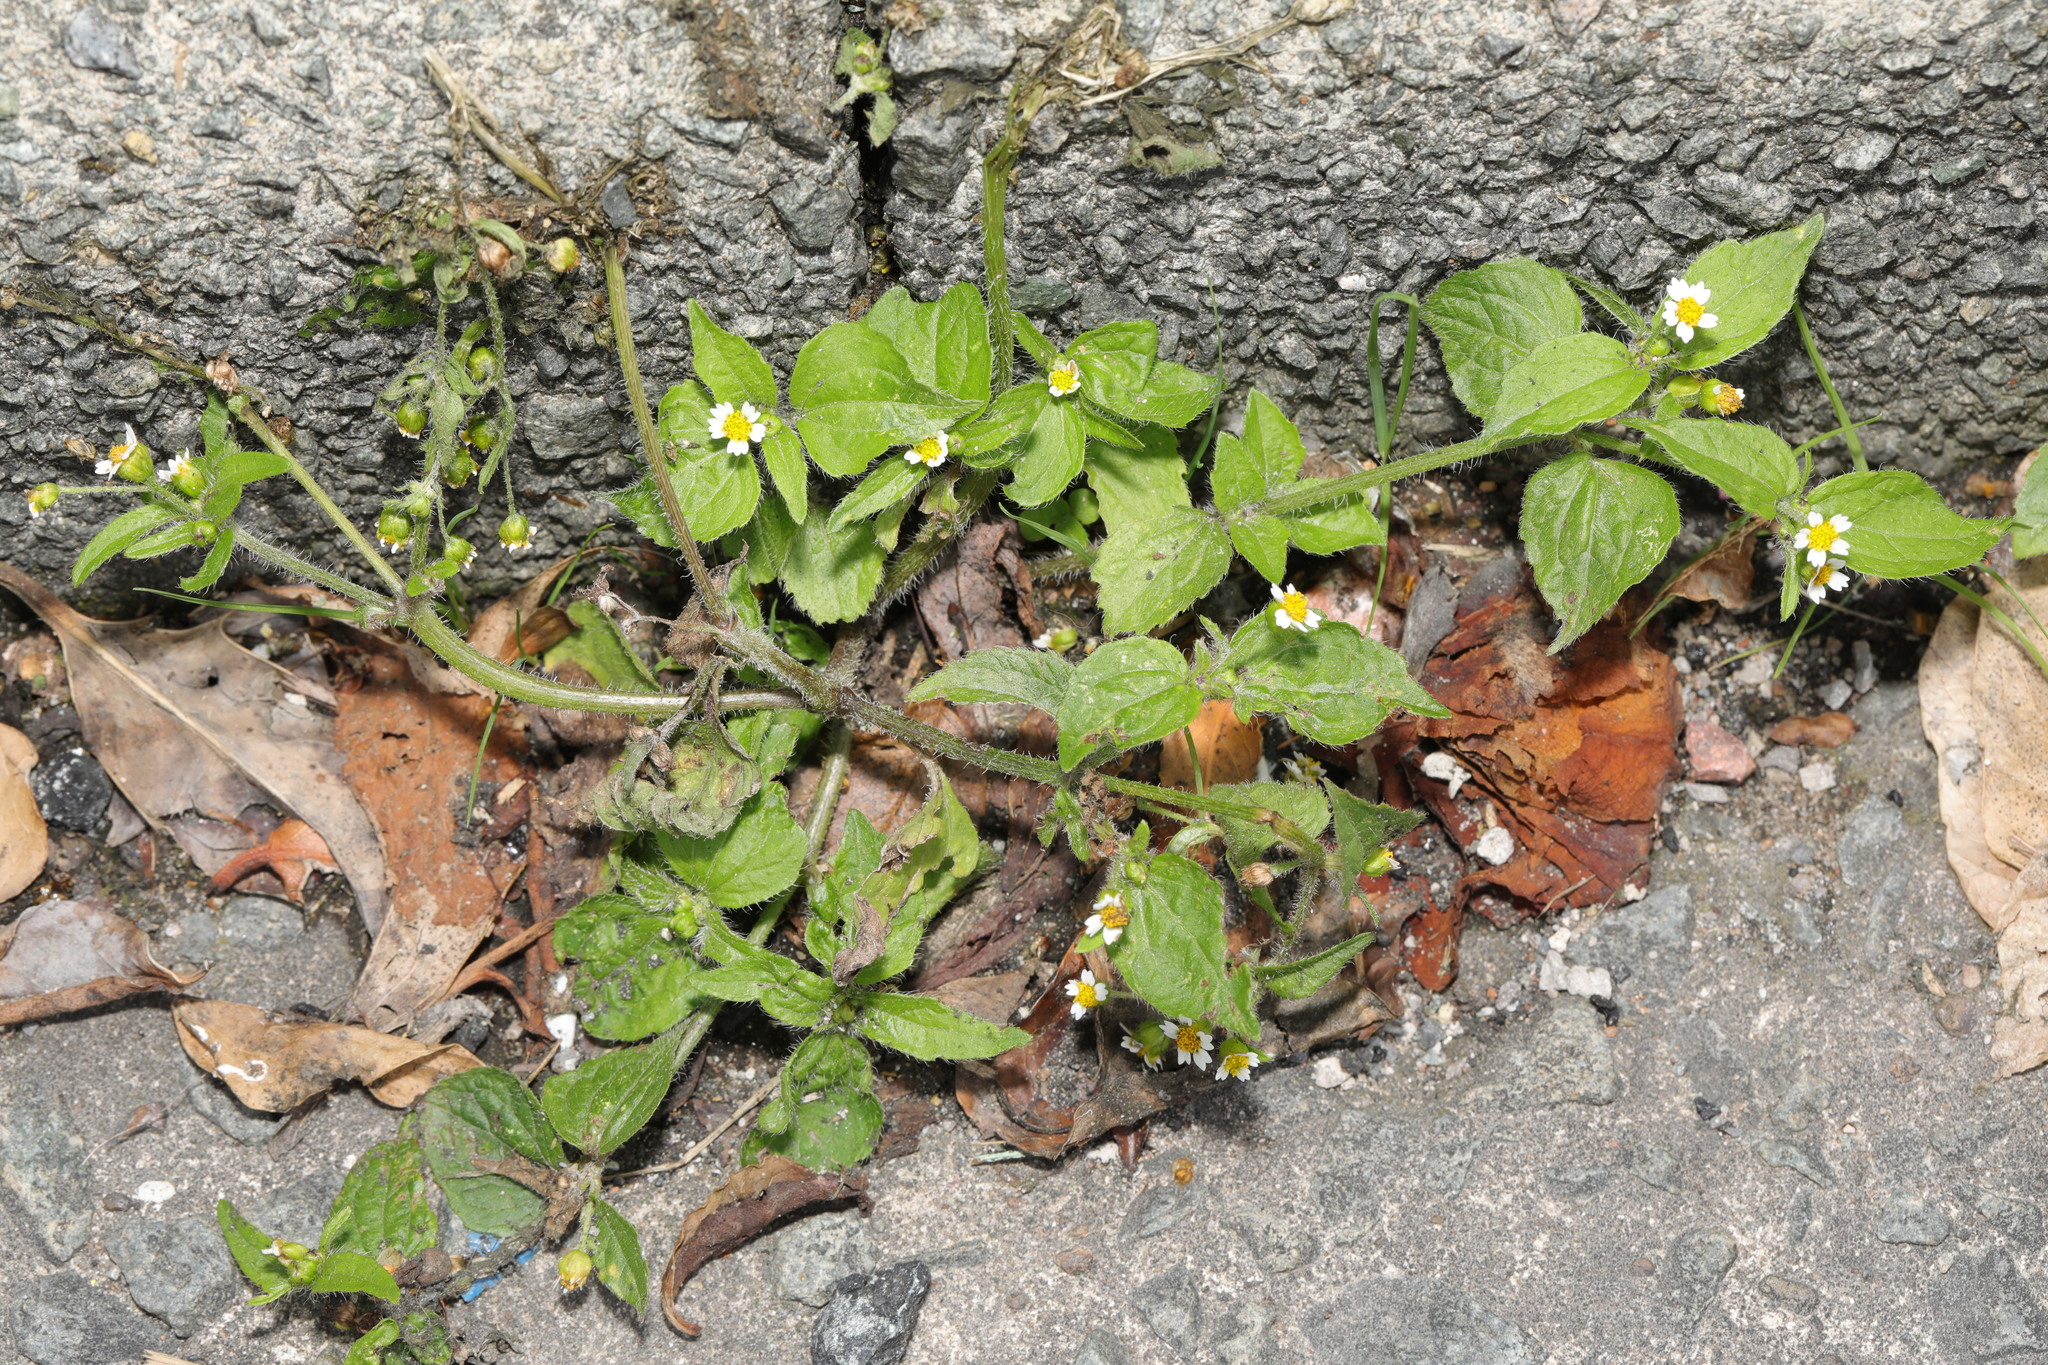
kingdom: Plantae
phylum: Tracheophyta
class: Magnoliopsida
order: Asterales
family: Asteraceae
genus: Galinsoga
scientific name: Galinsoga quadriradiata
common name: Shaggy soldier
